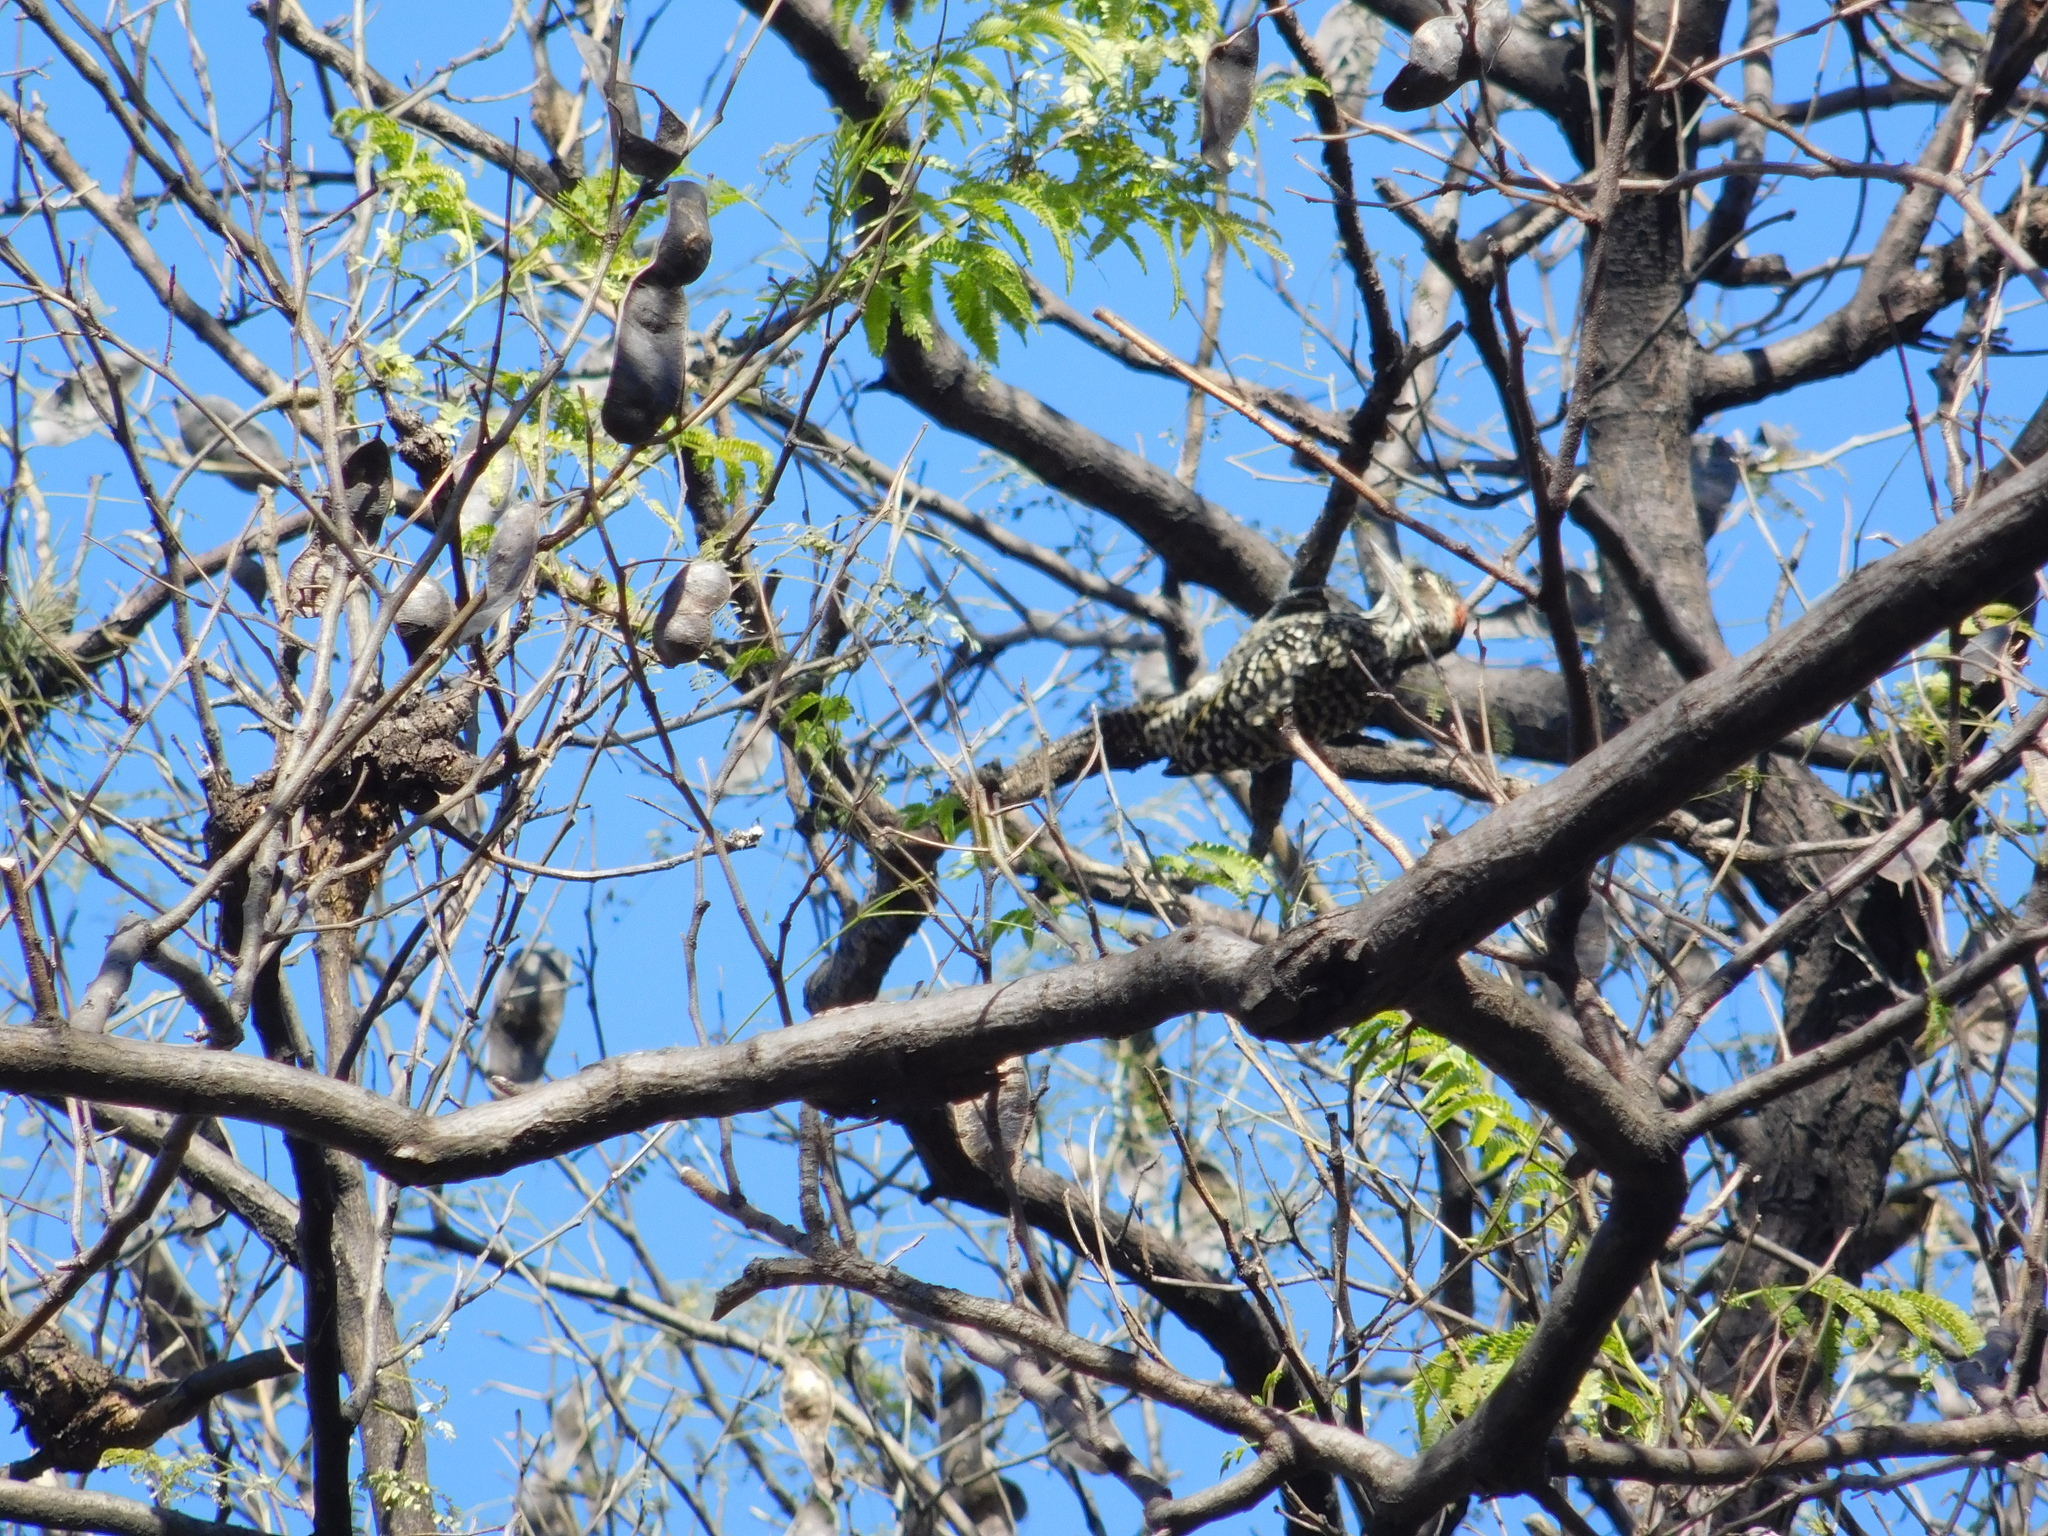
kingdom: Animalia
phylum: Chordata
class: Aves
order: Piciformes
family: Picidae
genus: Veniliornis
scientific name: Veniliornis mixtus
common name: Checkered woodpecker
